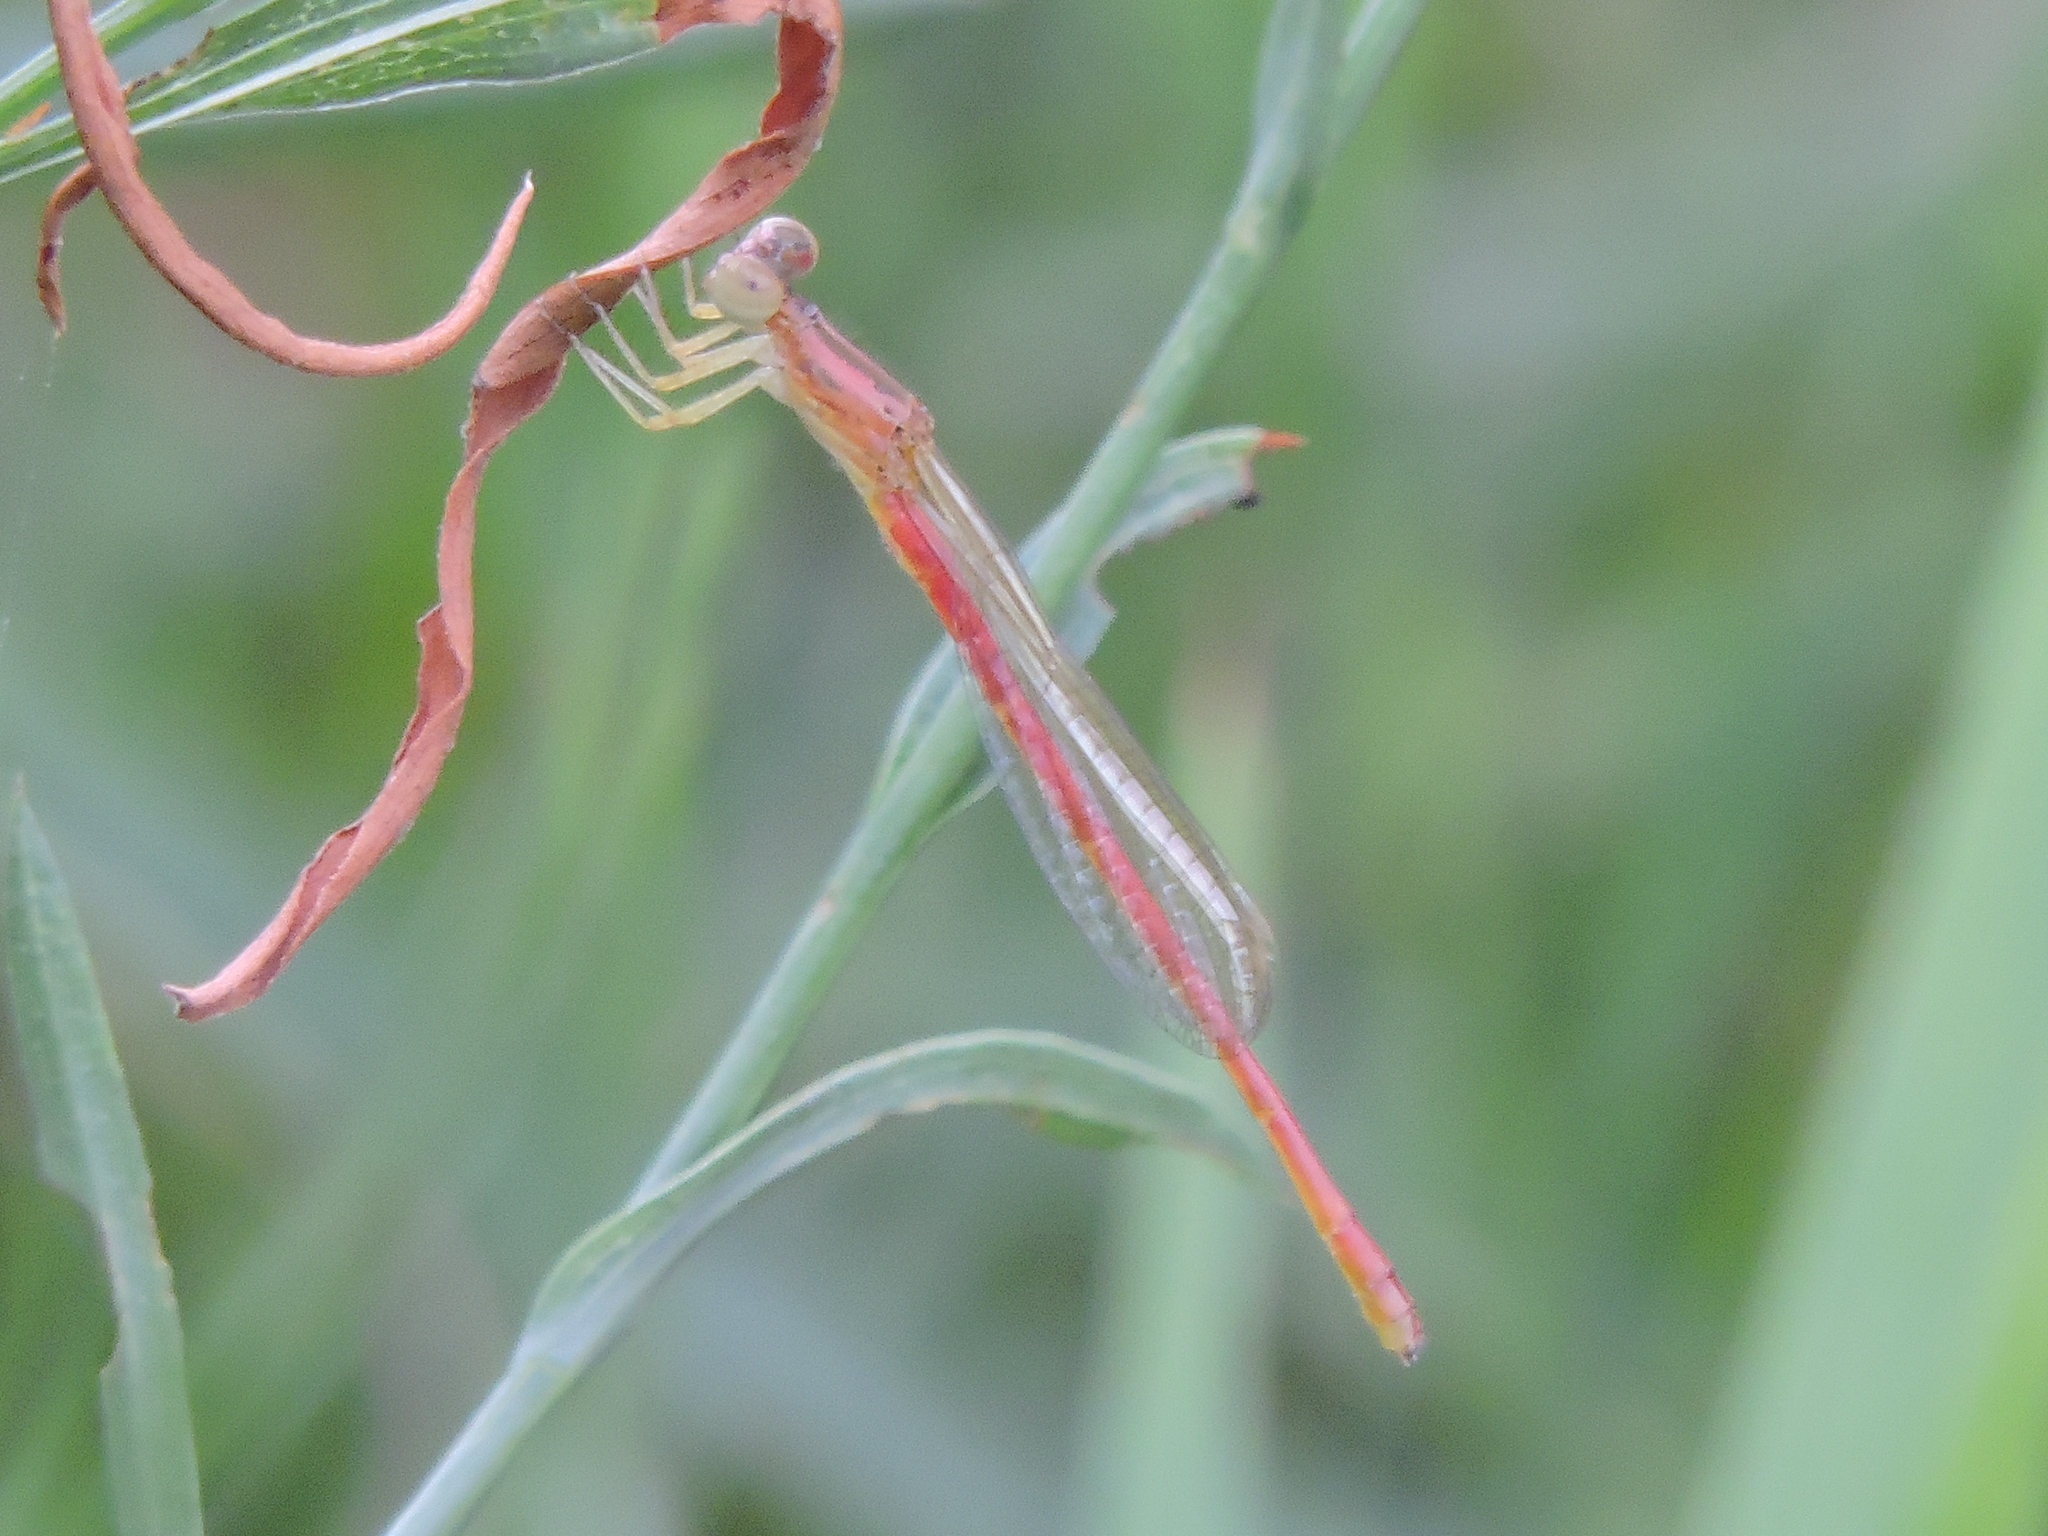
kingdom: Animalia
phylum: Arthropoda
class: Insecta
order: Odonata
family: Coenagrionidae
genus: Telebasis
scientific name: Telebasis salva
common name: Desert firetail
